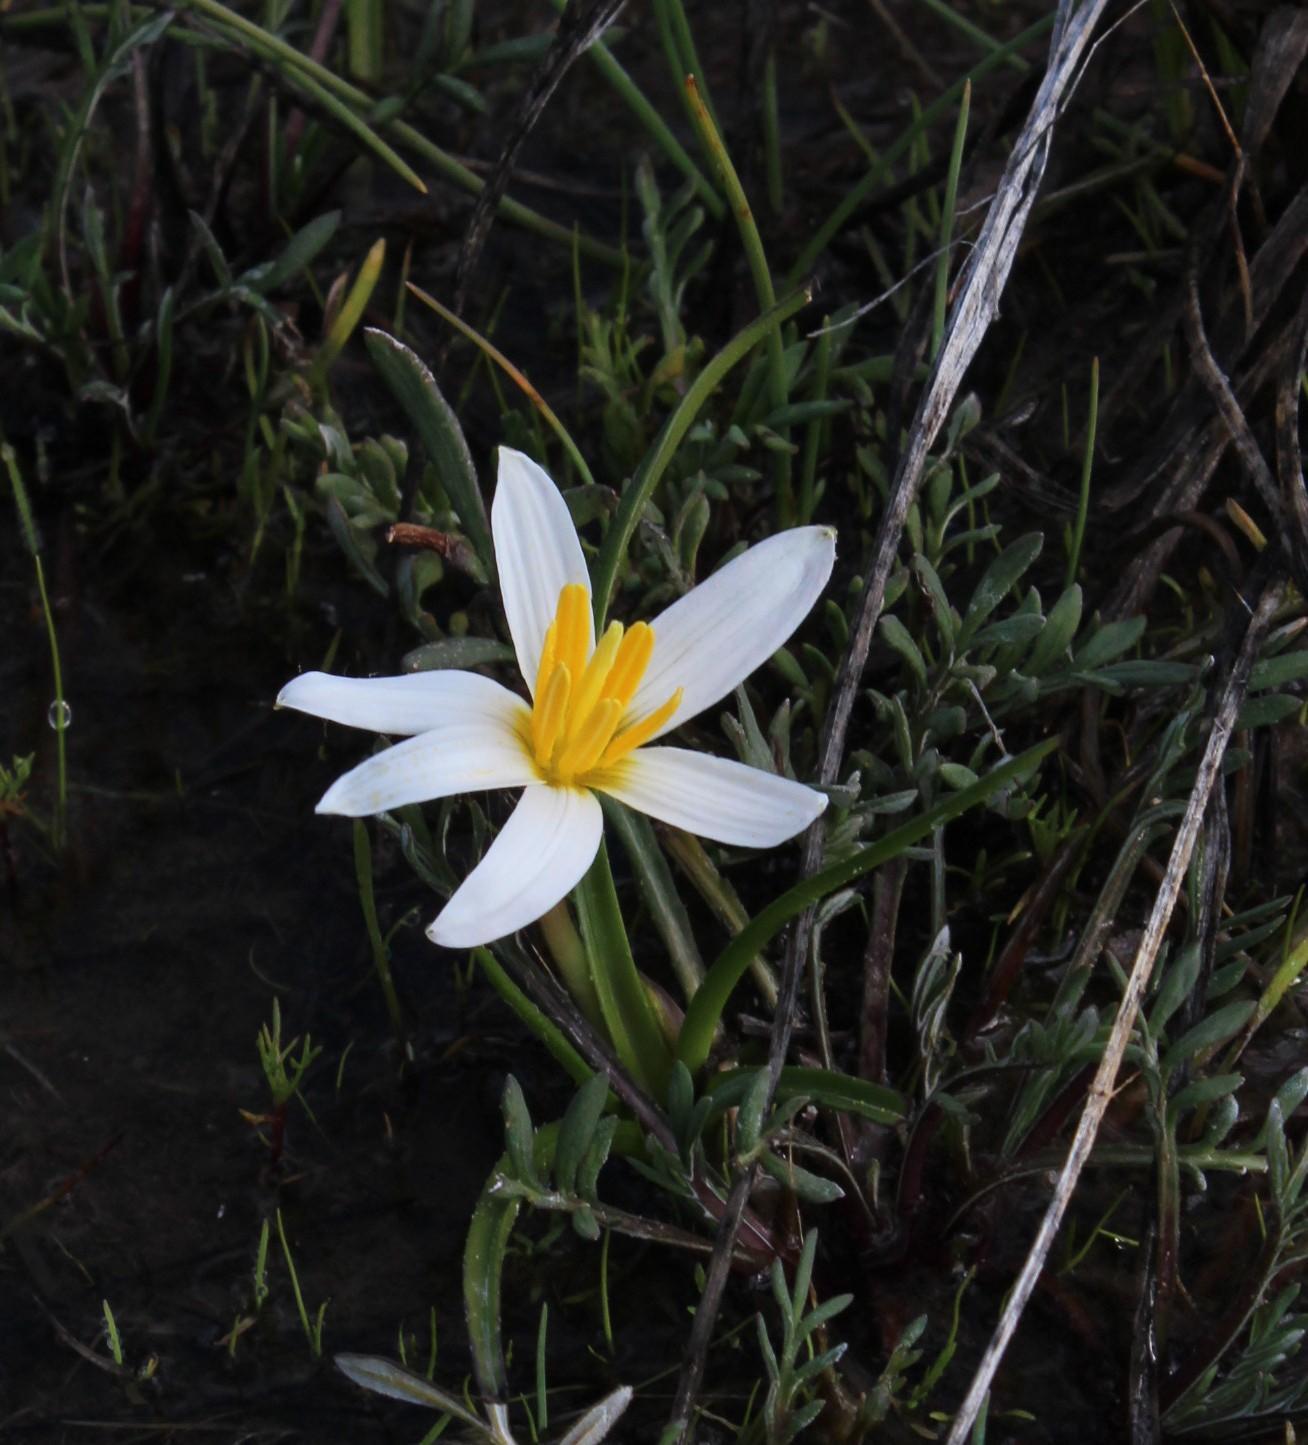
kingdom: Plantae
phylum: Tracheophyta
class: Liliopsida
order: Asparagales
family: Hypoxidaceae
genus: Pauridia
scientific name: Pauridia alticola
